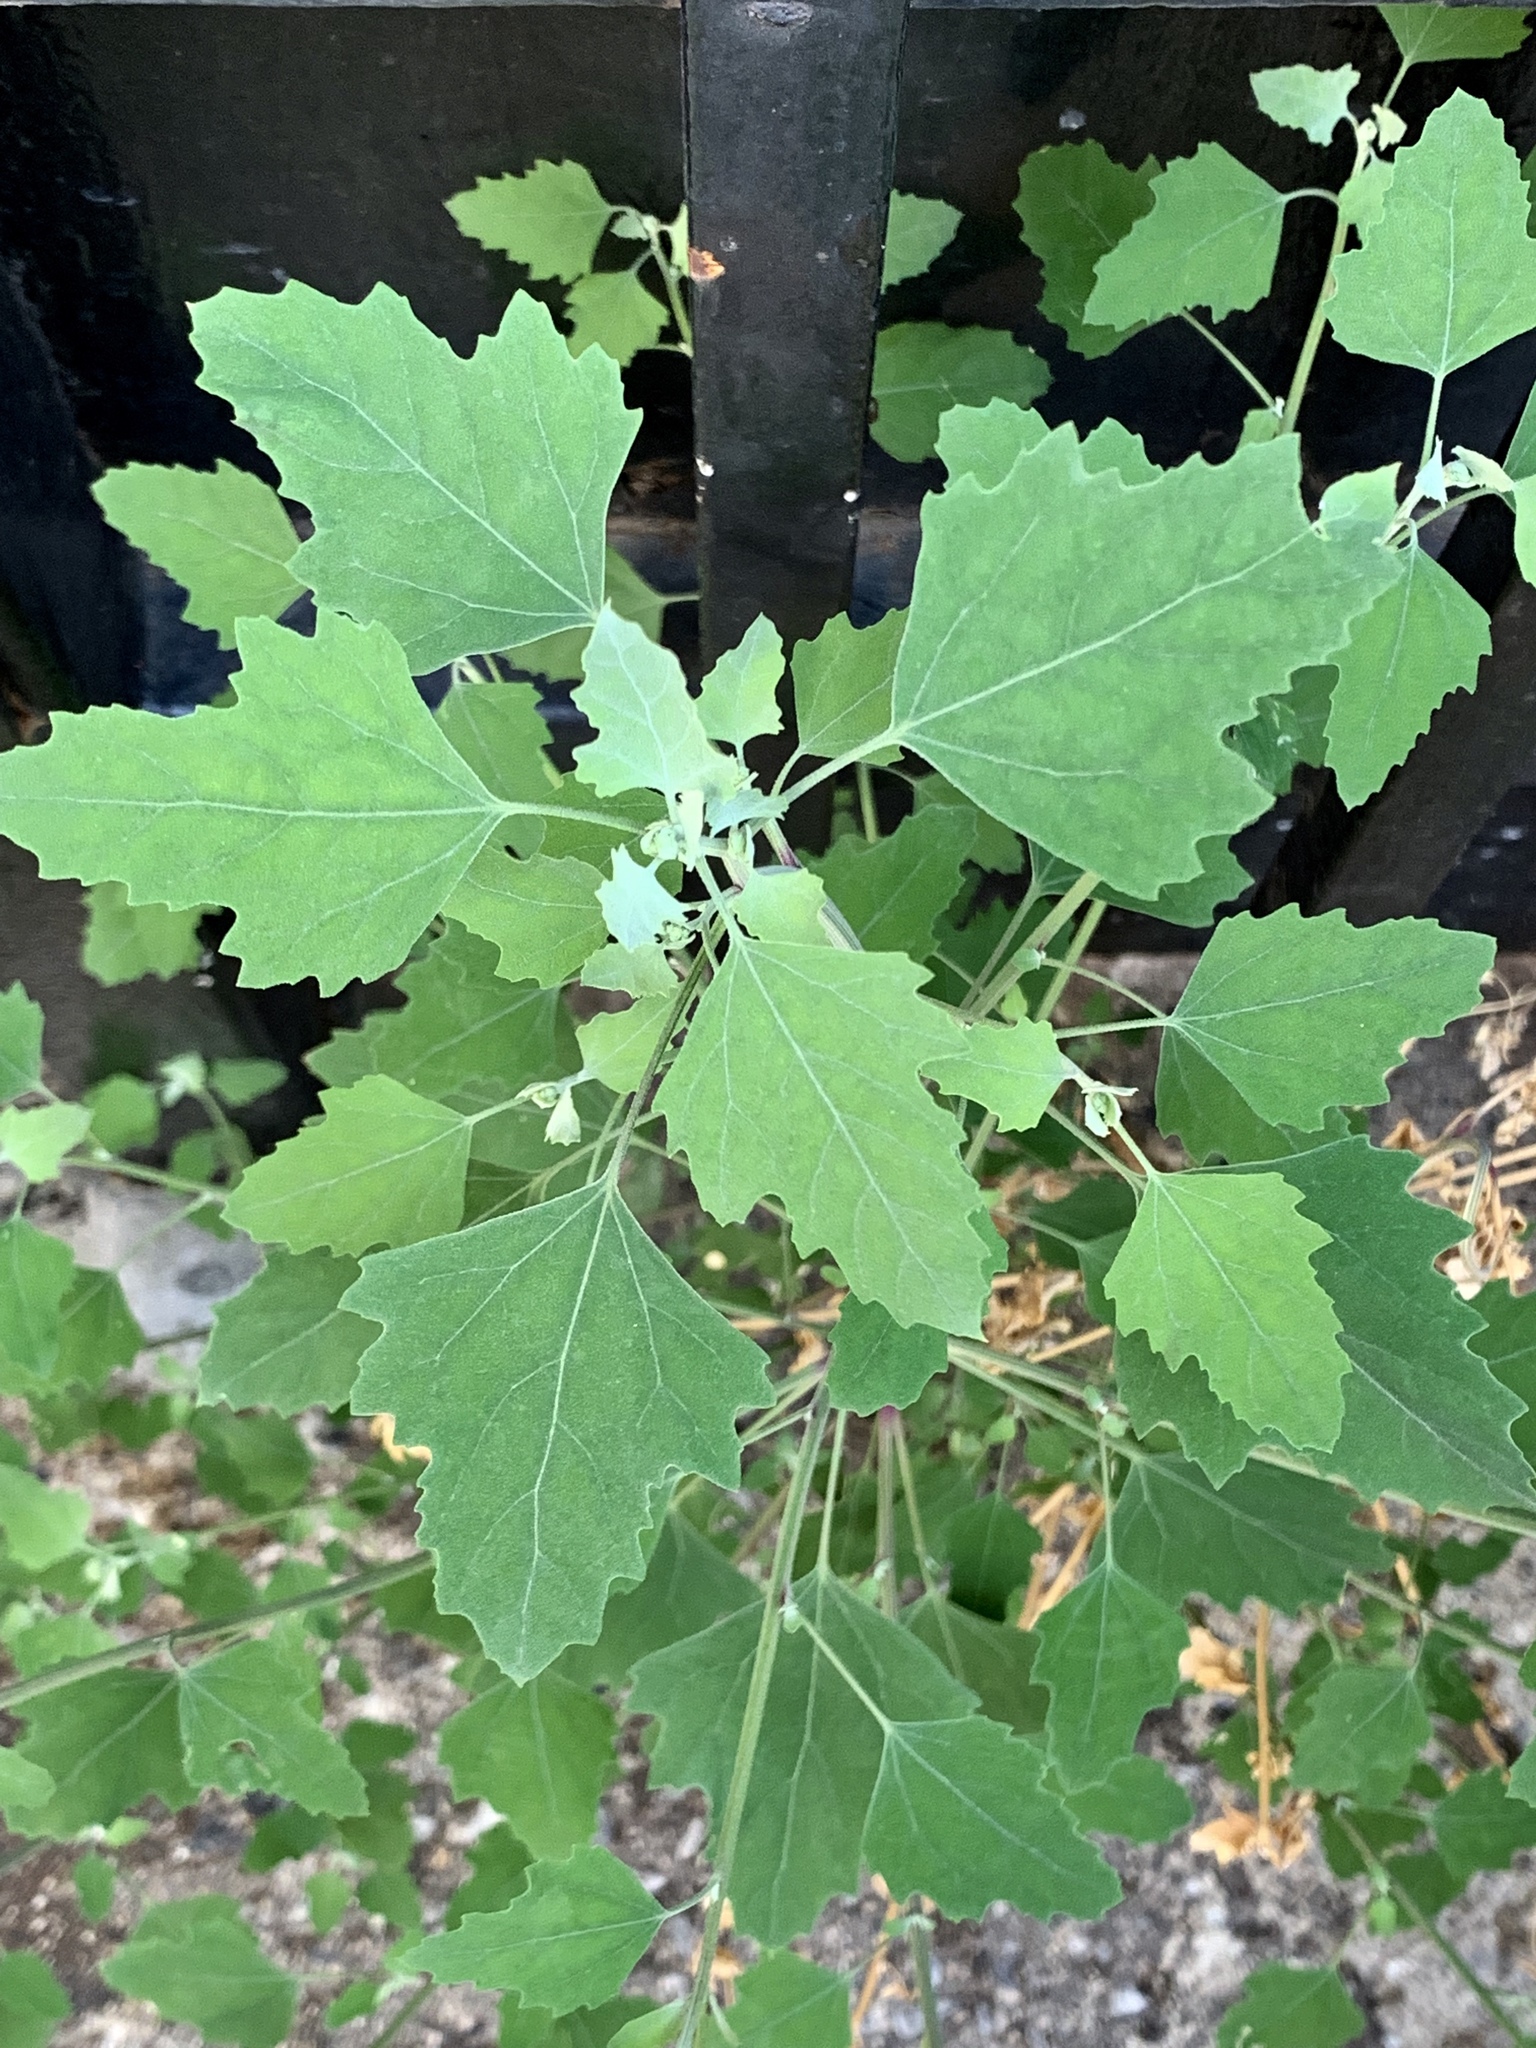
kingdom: Plantae
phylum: Tracheophyta
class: Magnoliopsida
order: Caryophyllales
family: Amaranthaceae
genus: Chenopodium
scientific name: Chenopodium album
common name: Fat-hen
